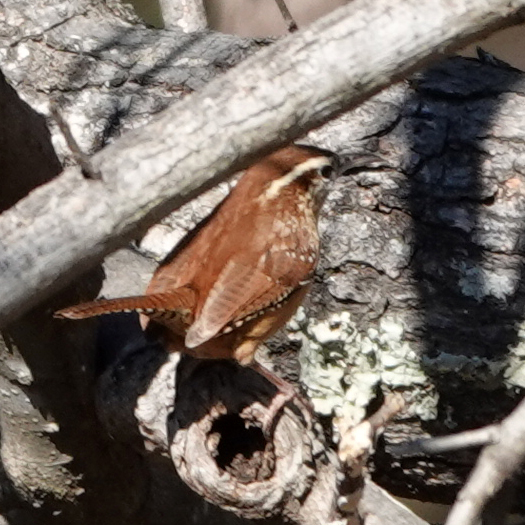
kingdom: Animalia
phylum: Chordata
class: Aves
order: Passeriformes
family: Troglodytidae
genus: Thryothorus
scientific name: Thryothorus ludovicianus
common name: Carolina wren
